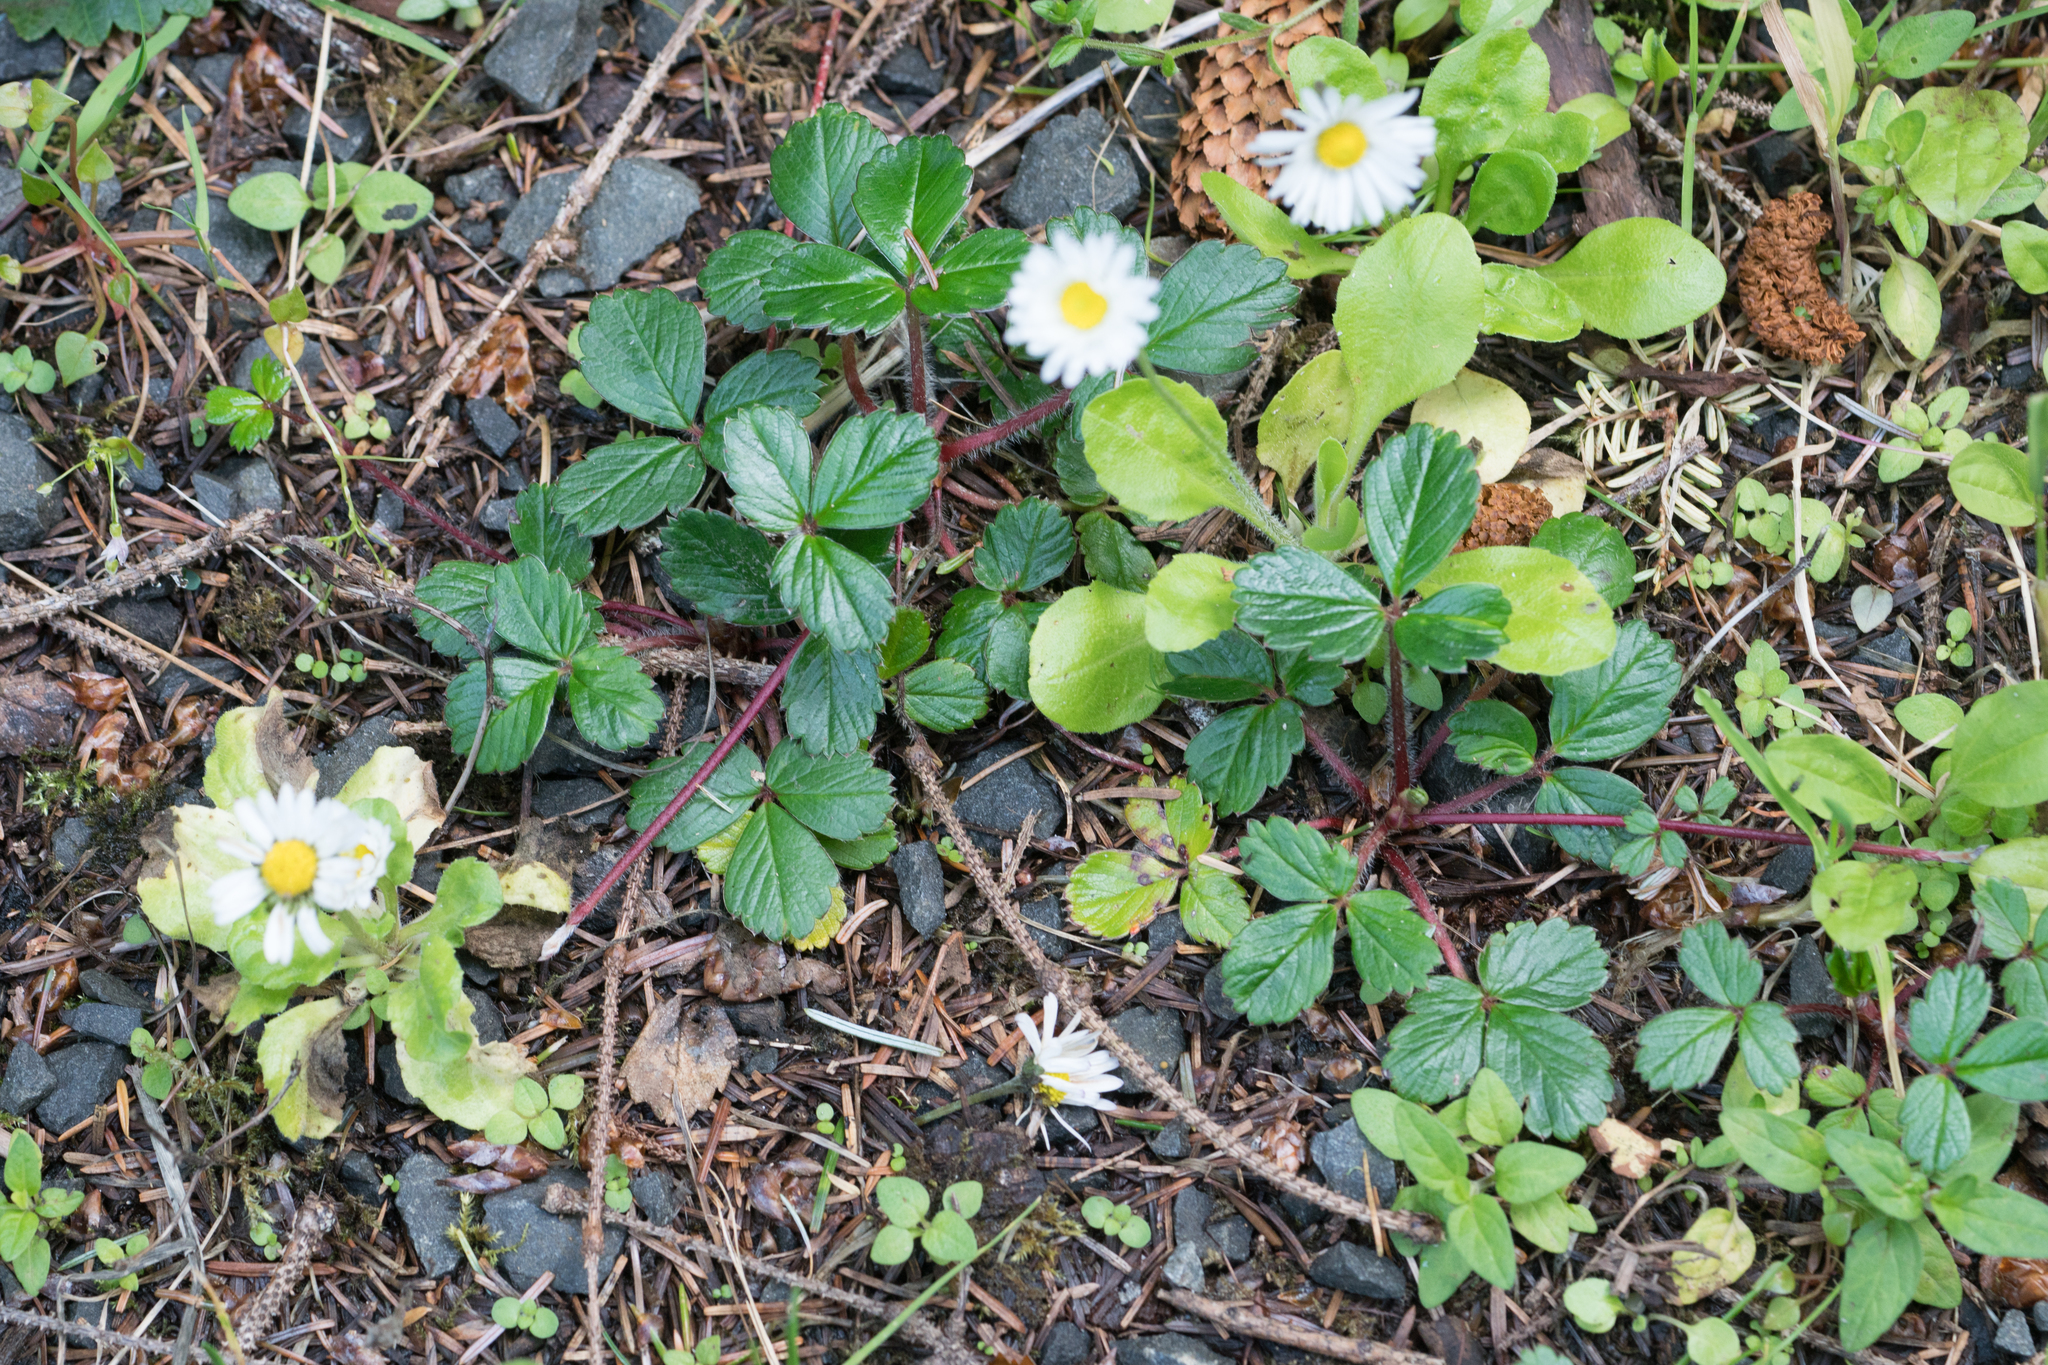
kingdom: Plantae
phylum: Tracheophyta
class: Magnoliopsida
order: Rosales
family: Rosaceae
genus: Fragaria
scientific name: Fragaria chiloensis
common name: Beach strawberry
